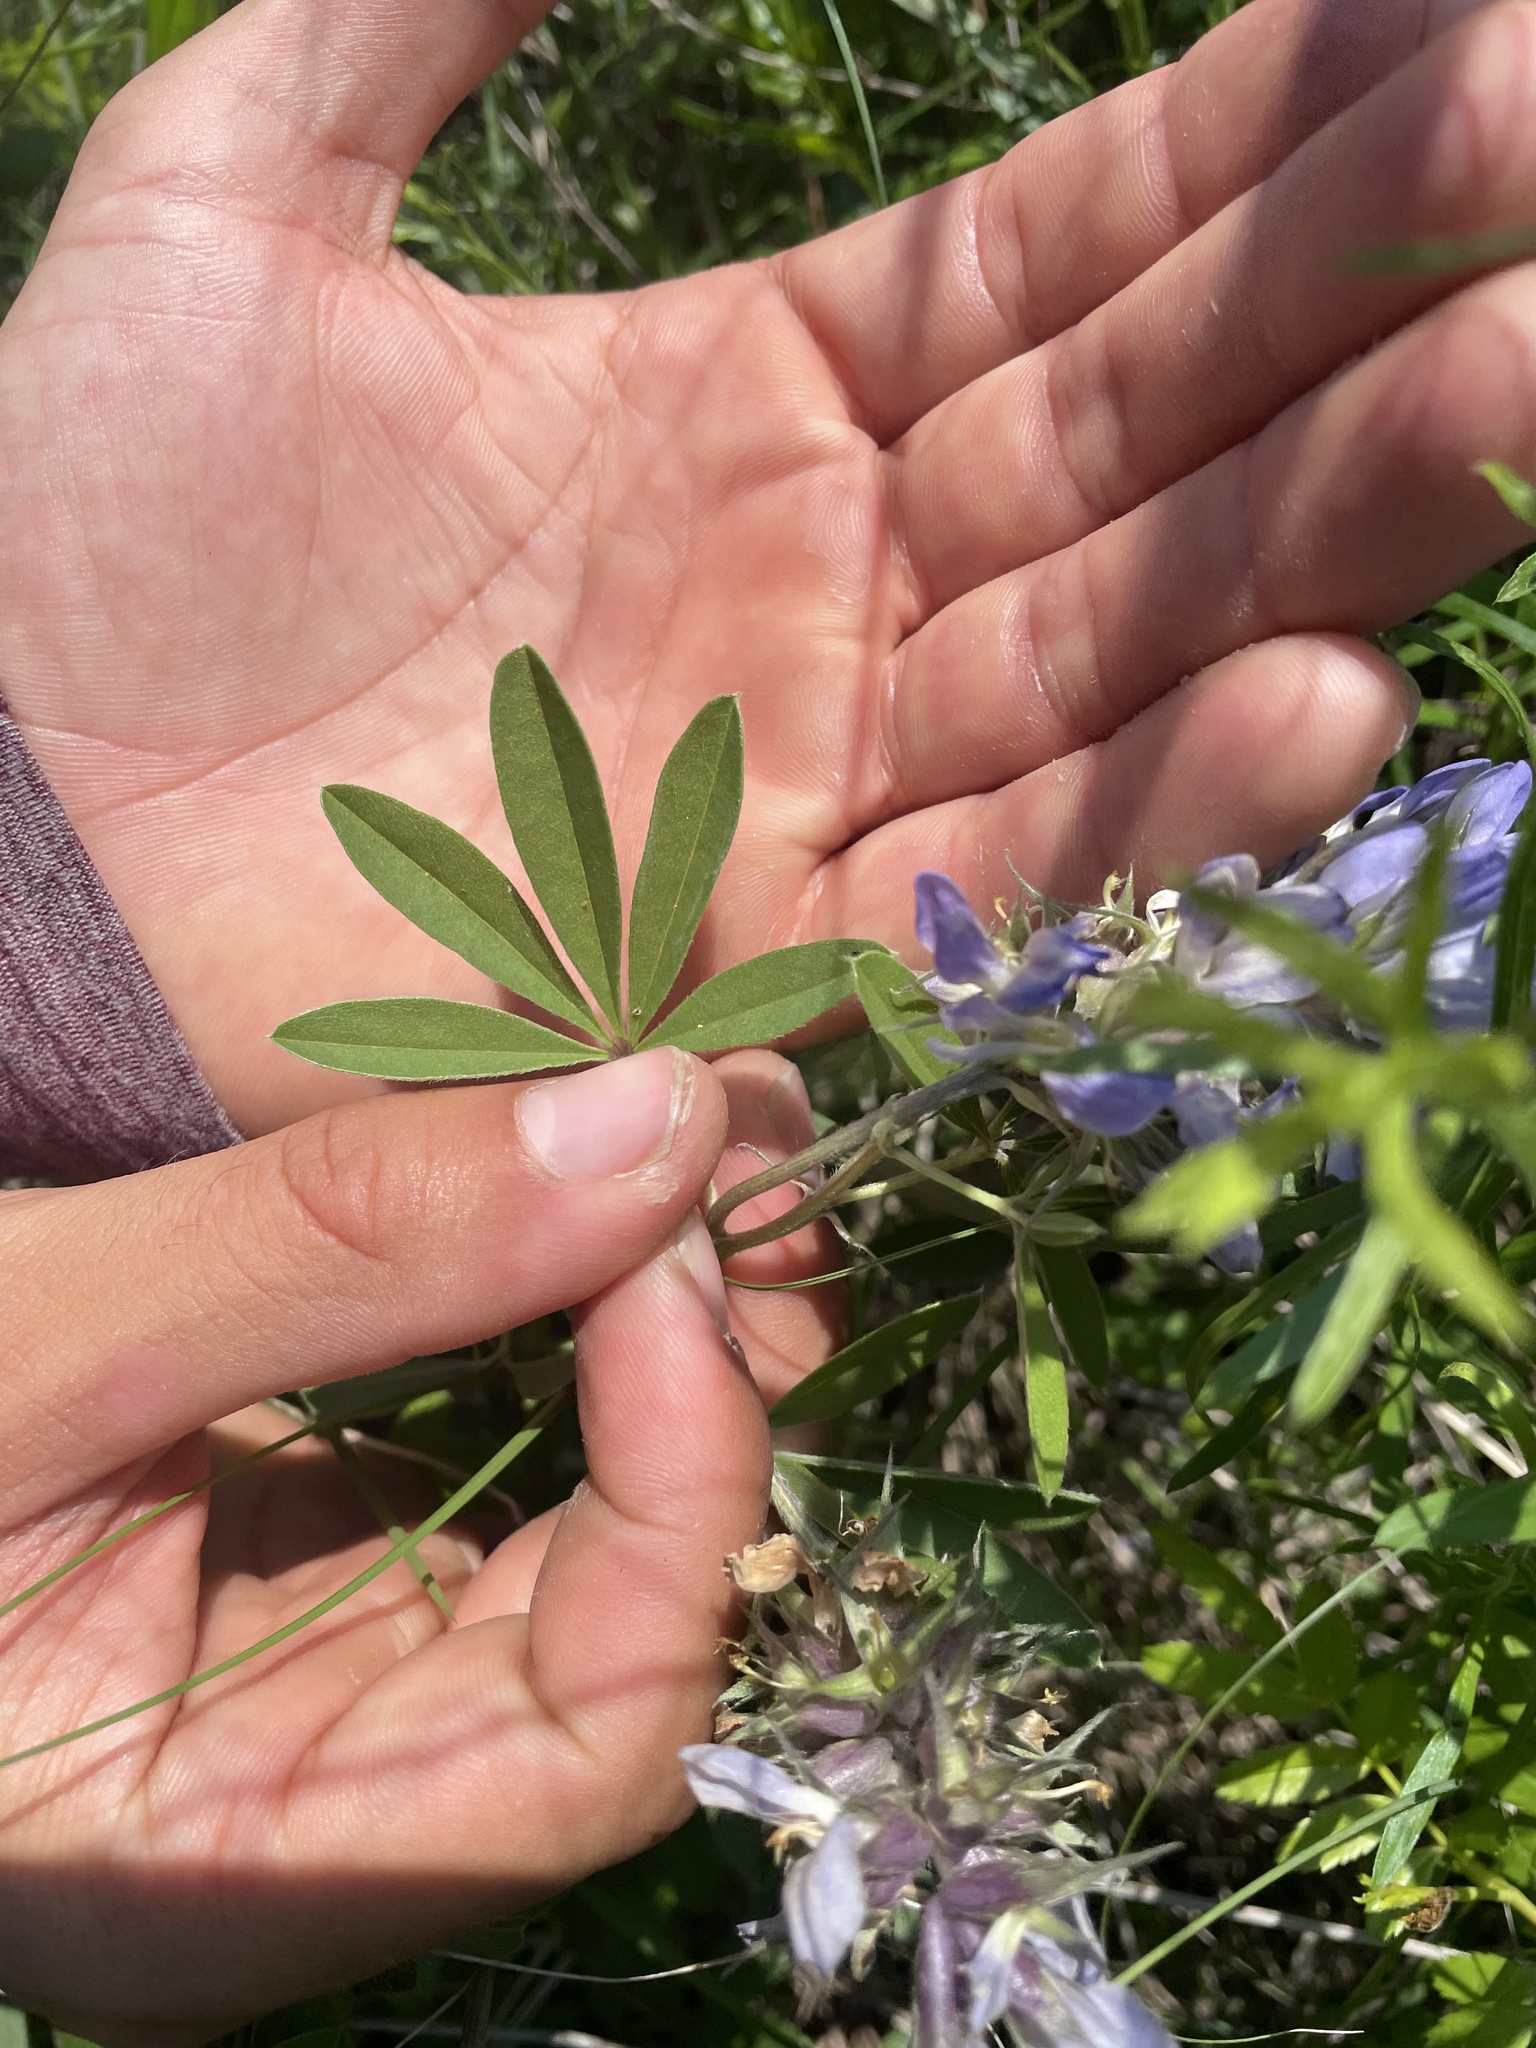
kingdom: Plantae
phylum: Tracheophyta
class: Magnoliopsida
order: Fabales
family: Fabaceae
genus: Pediomelum
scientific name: Pediomelum cuspidatum
